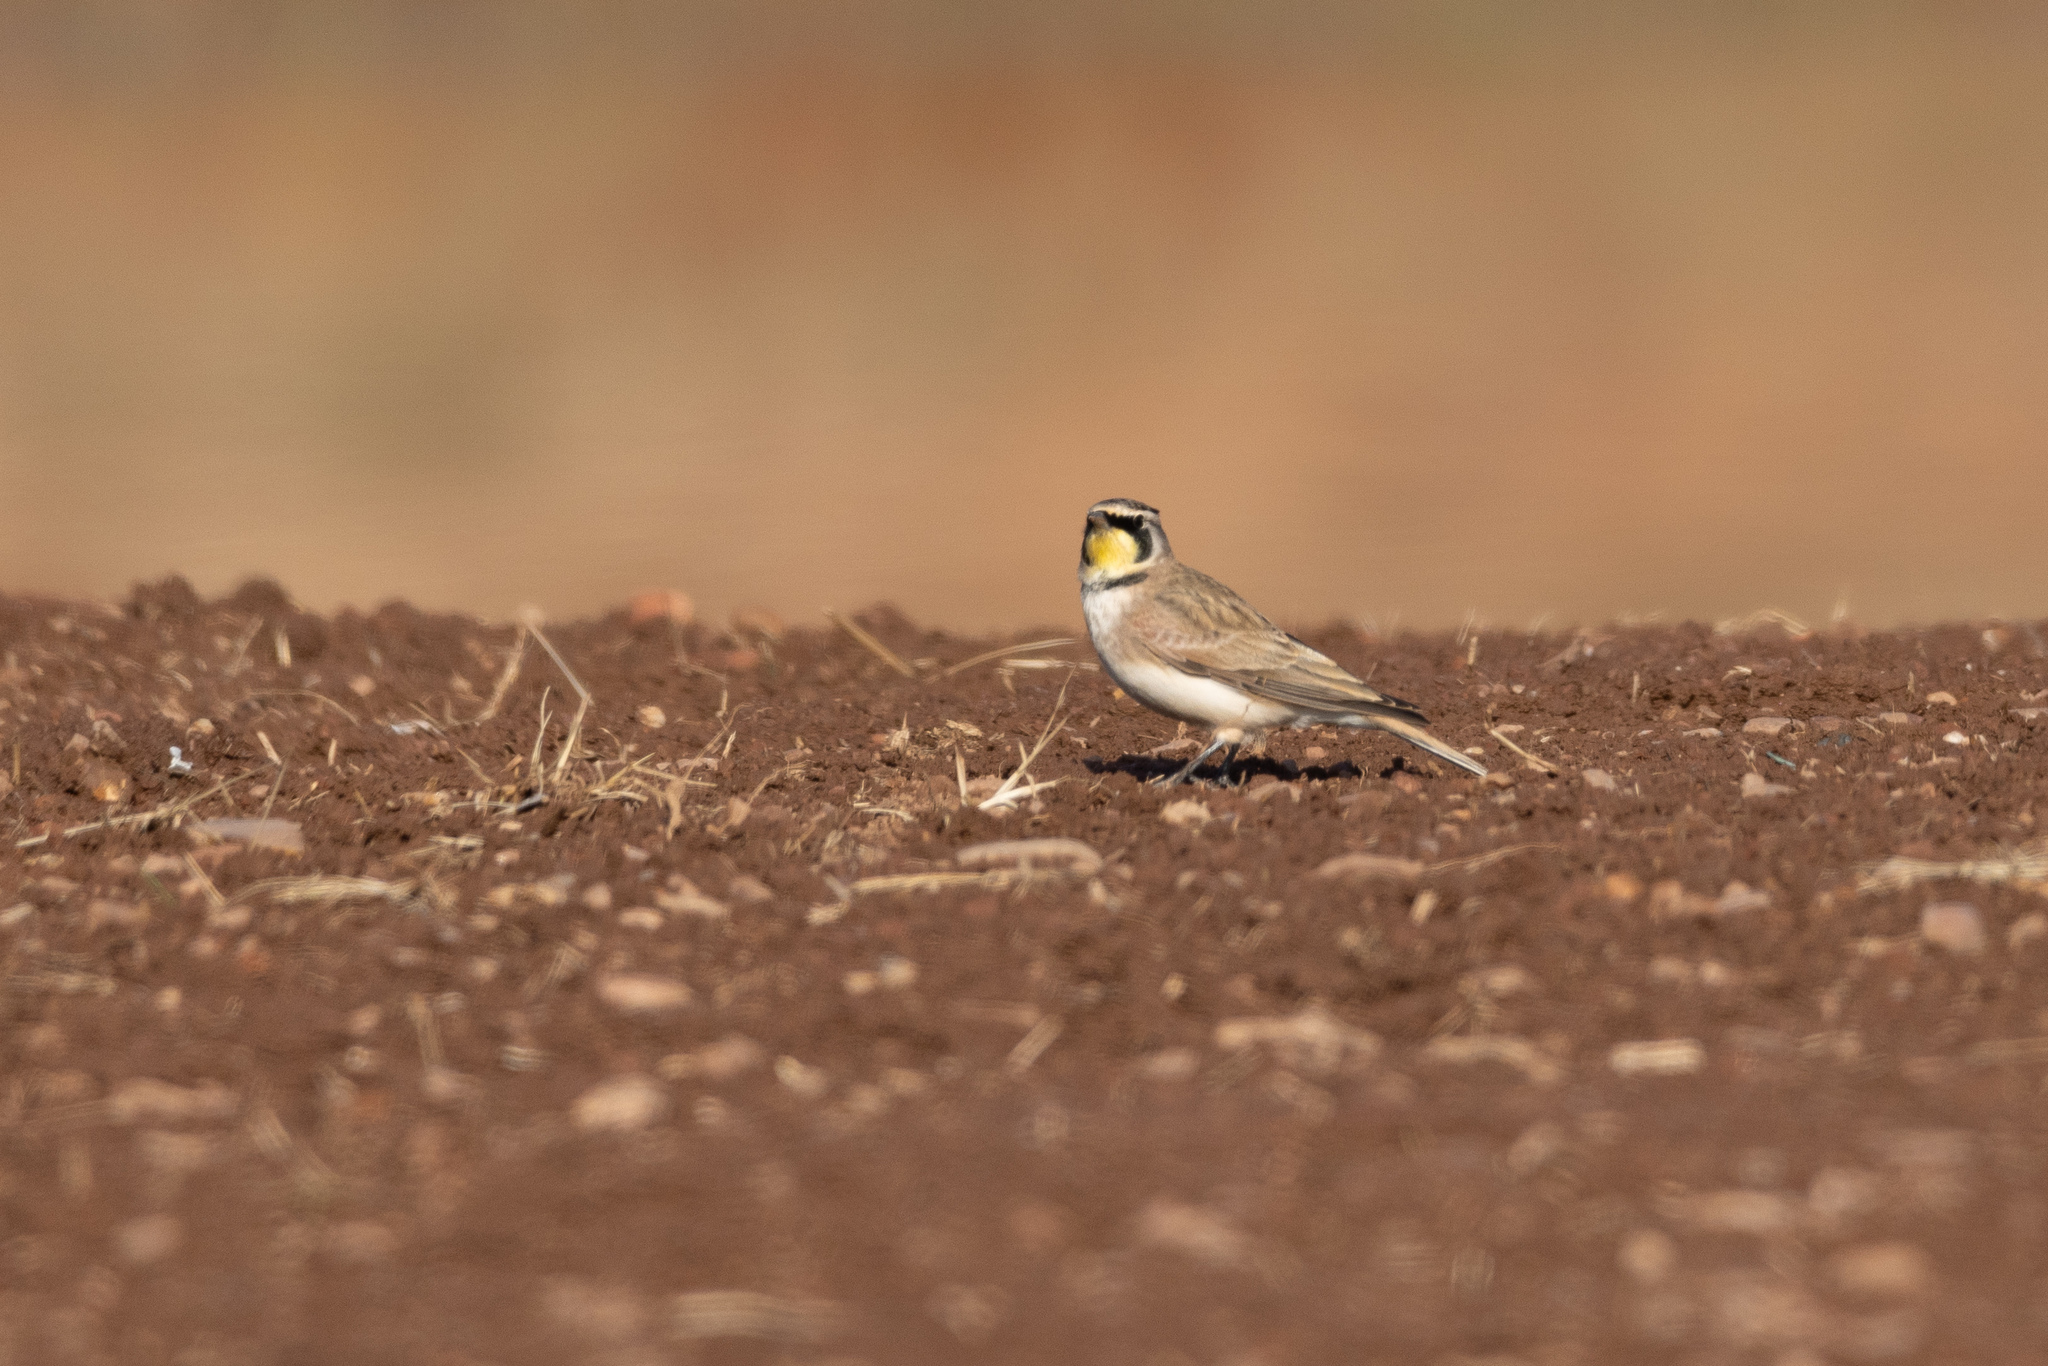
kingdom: Animalia
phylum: Chordata
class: Aves
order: Passeriformes
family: Alaudidae
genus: Eremophila
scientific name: Eremophila alpestris
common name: Horned lark
